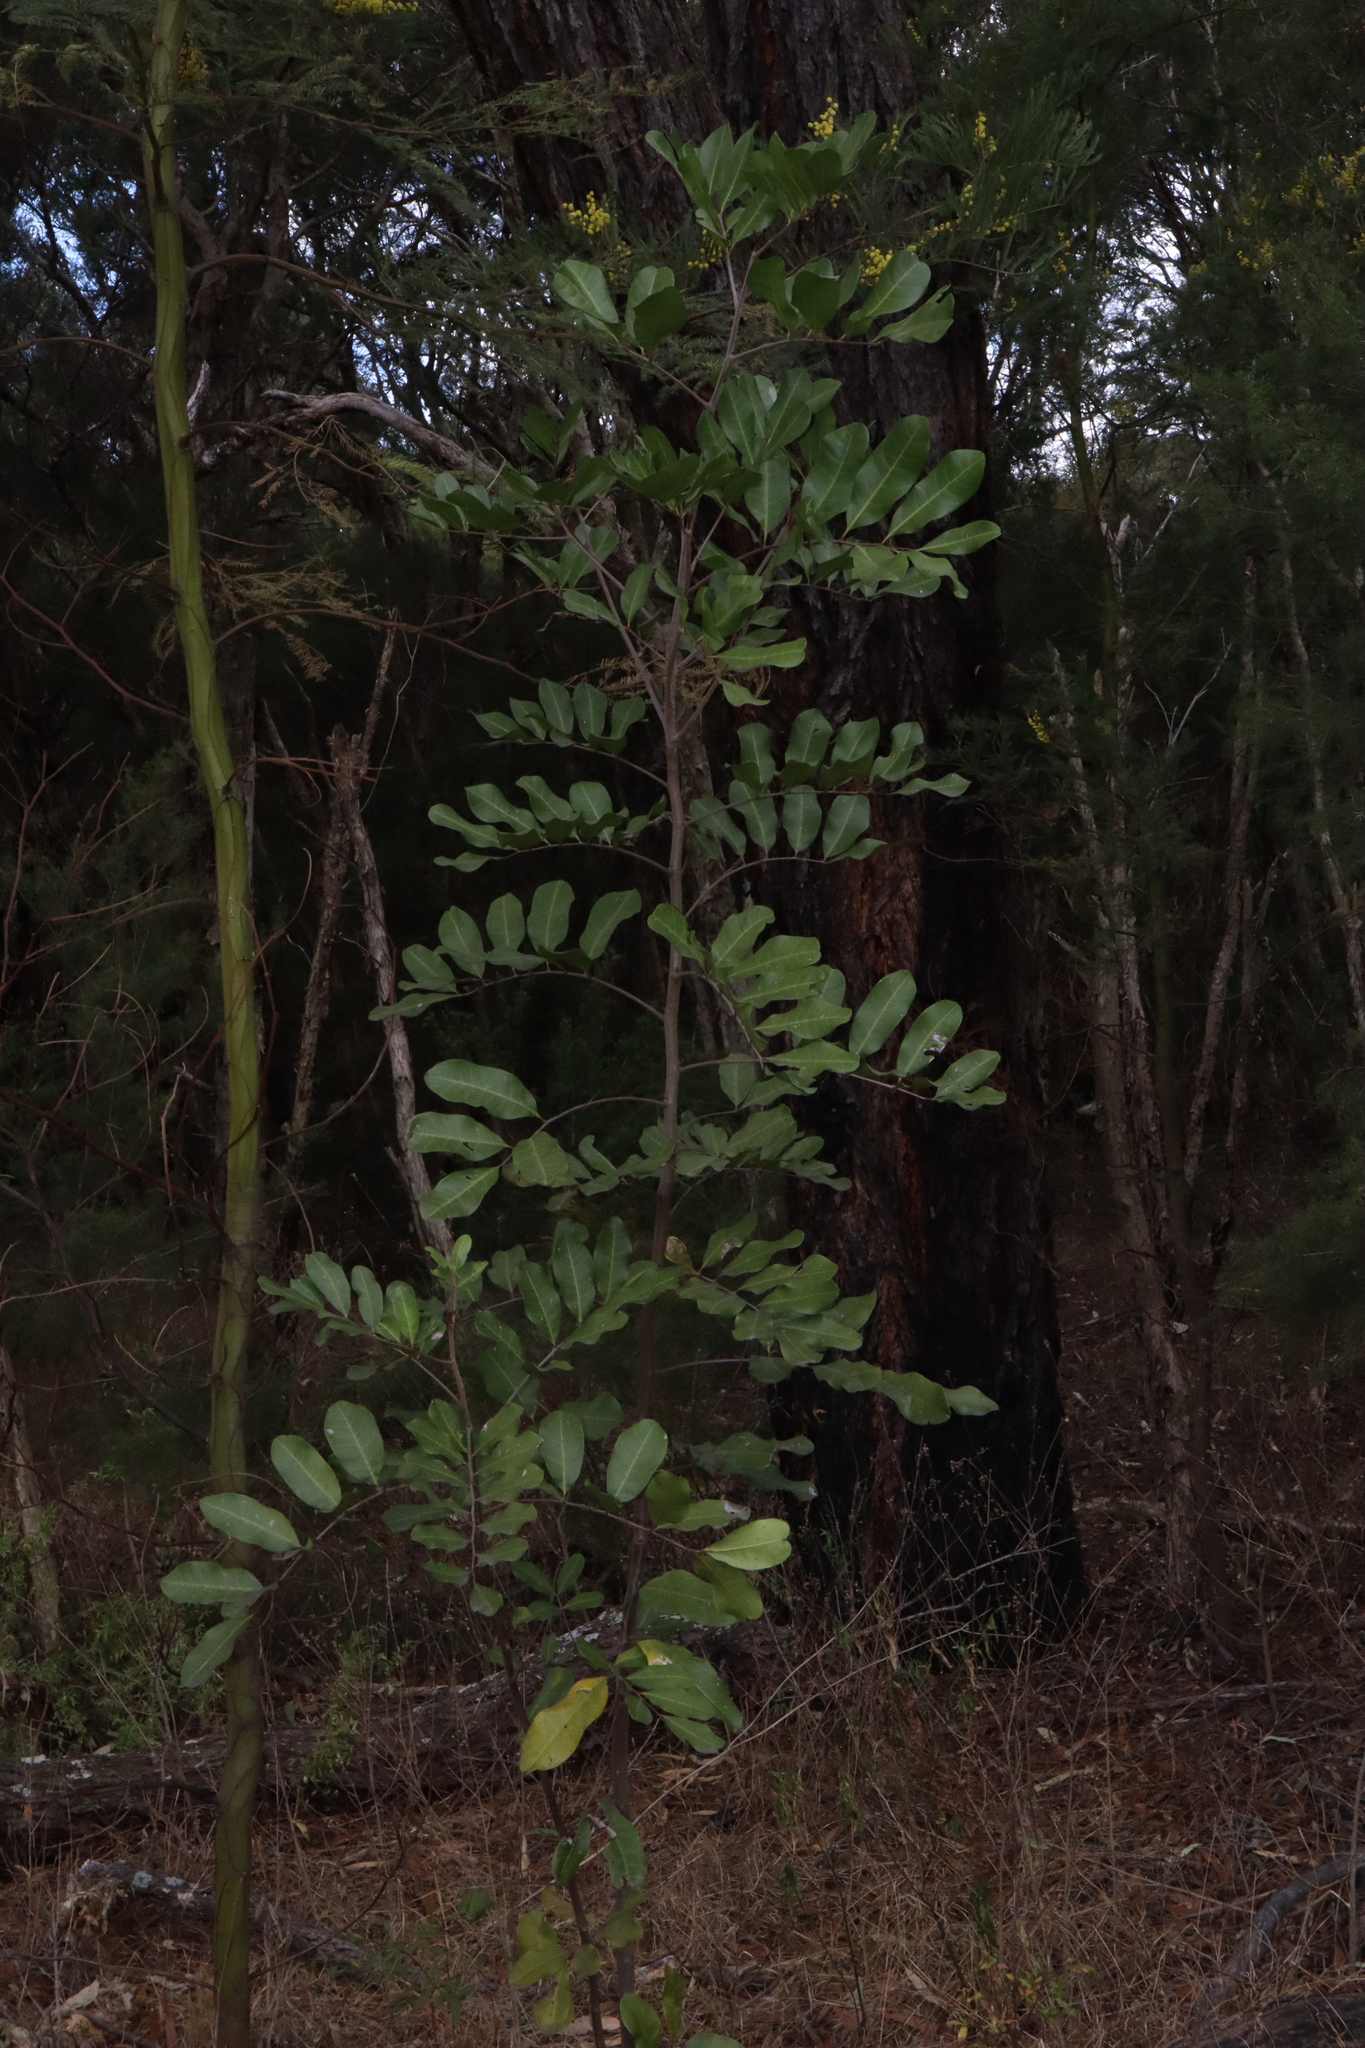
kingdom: Plantae
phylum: Tracheophyta
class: Magnoliopsida
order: Sapindales
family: Sapindaceae
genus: Cupaniopsis
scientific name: Cupaniopsis anacardioides
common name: Carrotwood
